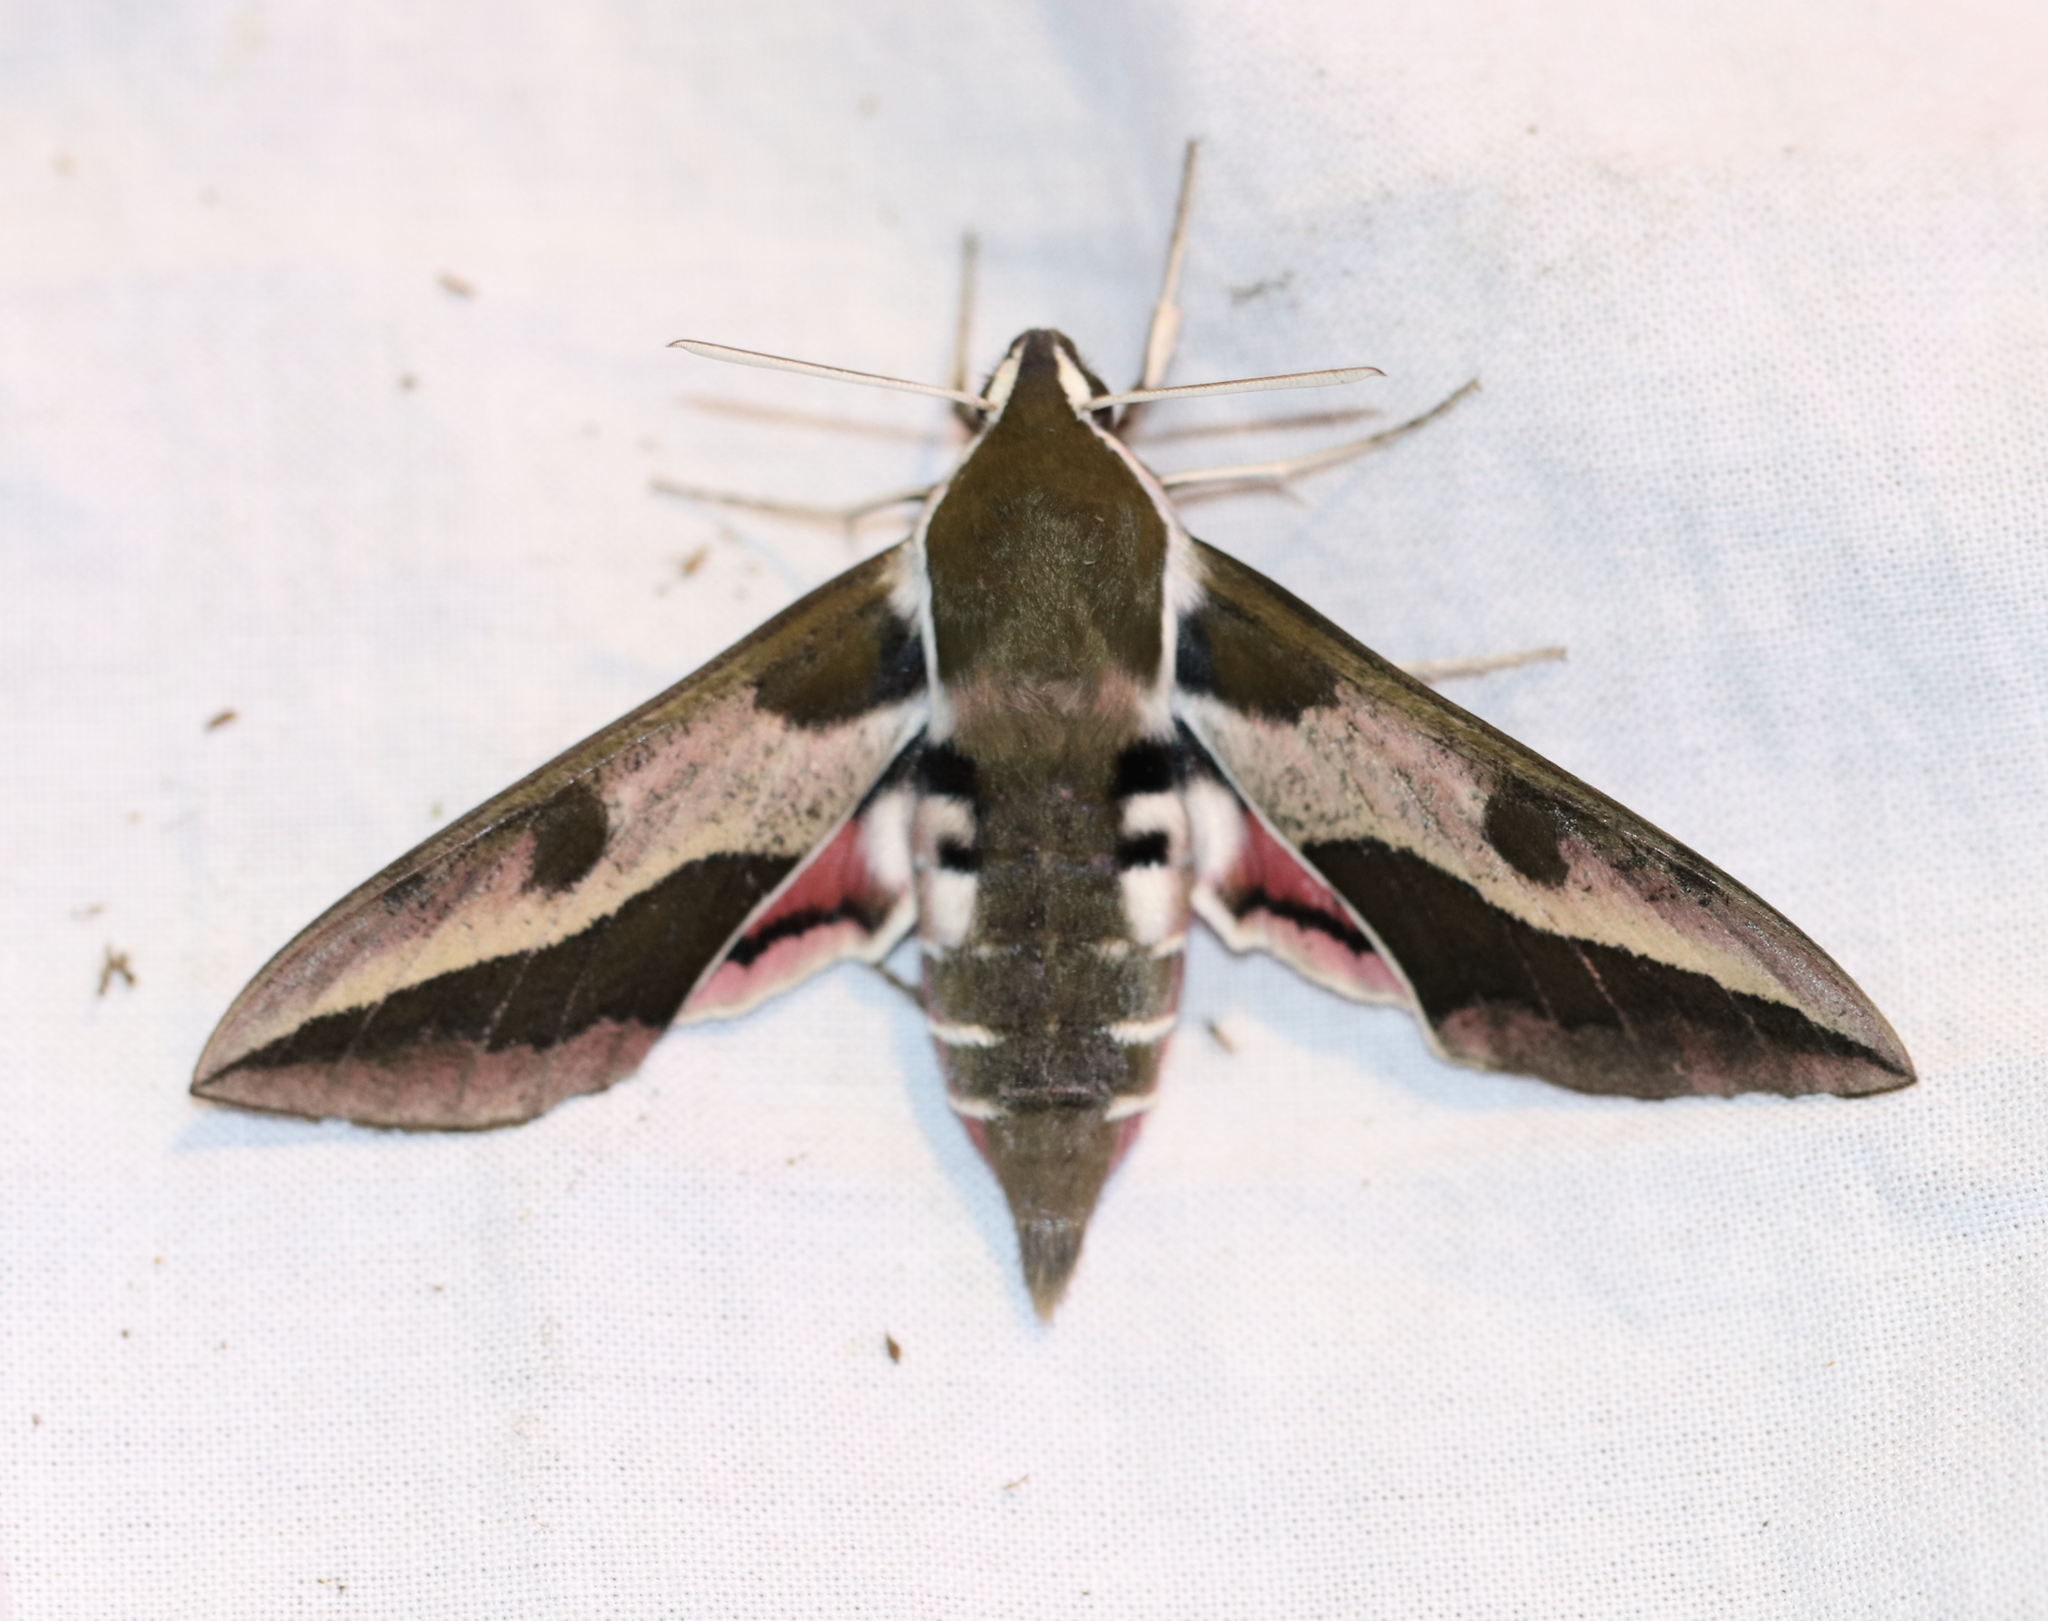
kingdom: Animalia
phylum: Arthropoda
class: Insecta
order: Lepidoptera
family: Sphingidae
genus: Hyles
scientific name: Hyles euphorbiae
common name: Spurge hawk-moth
